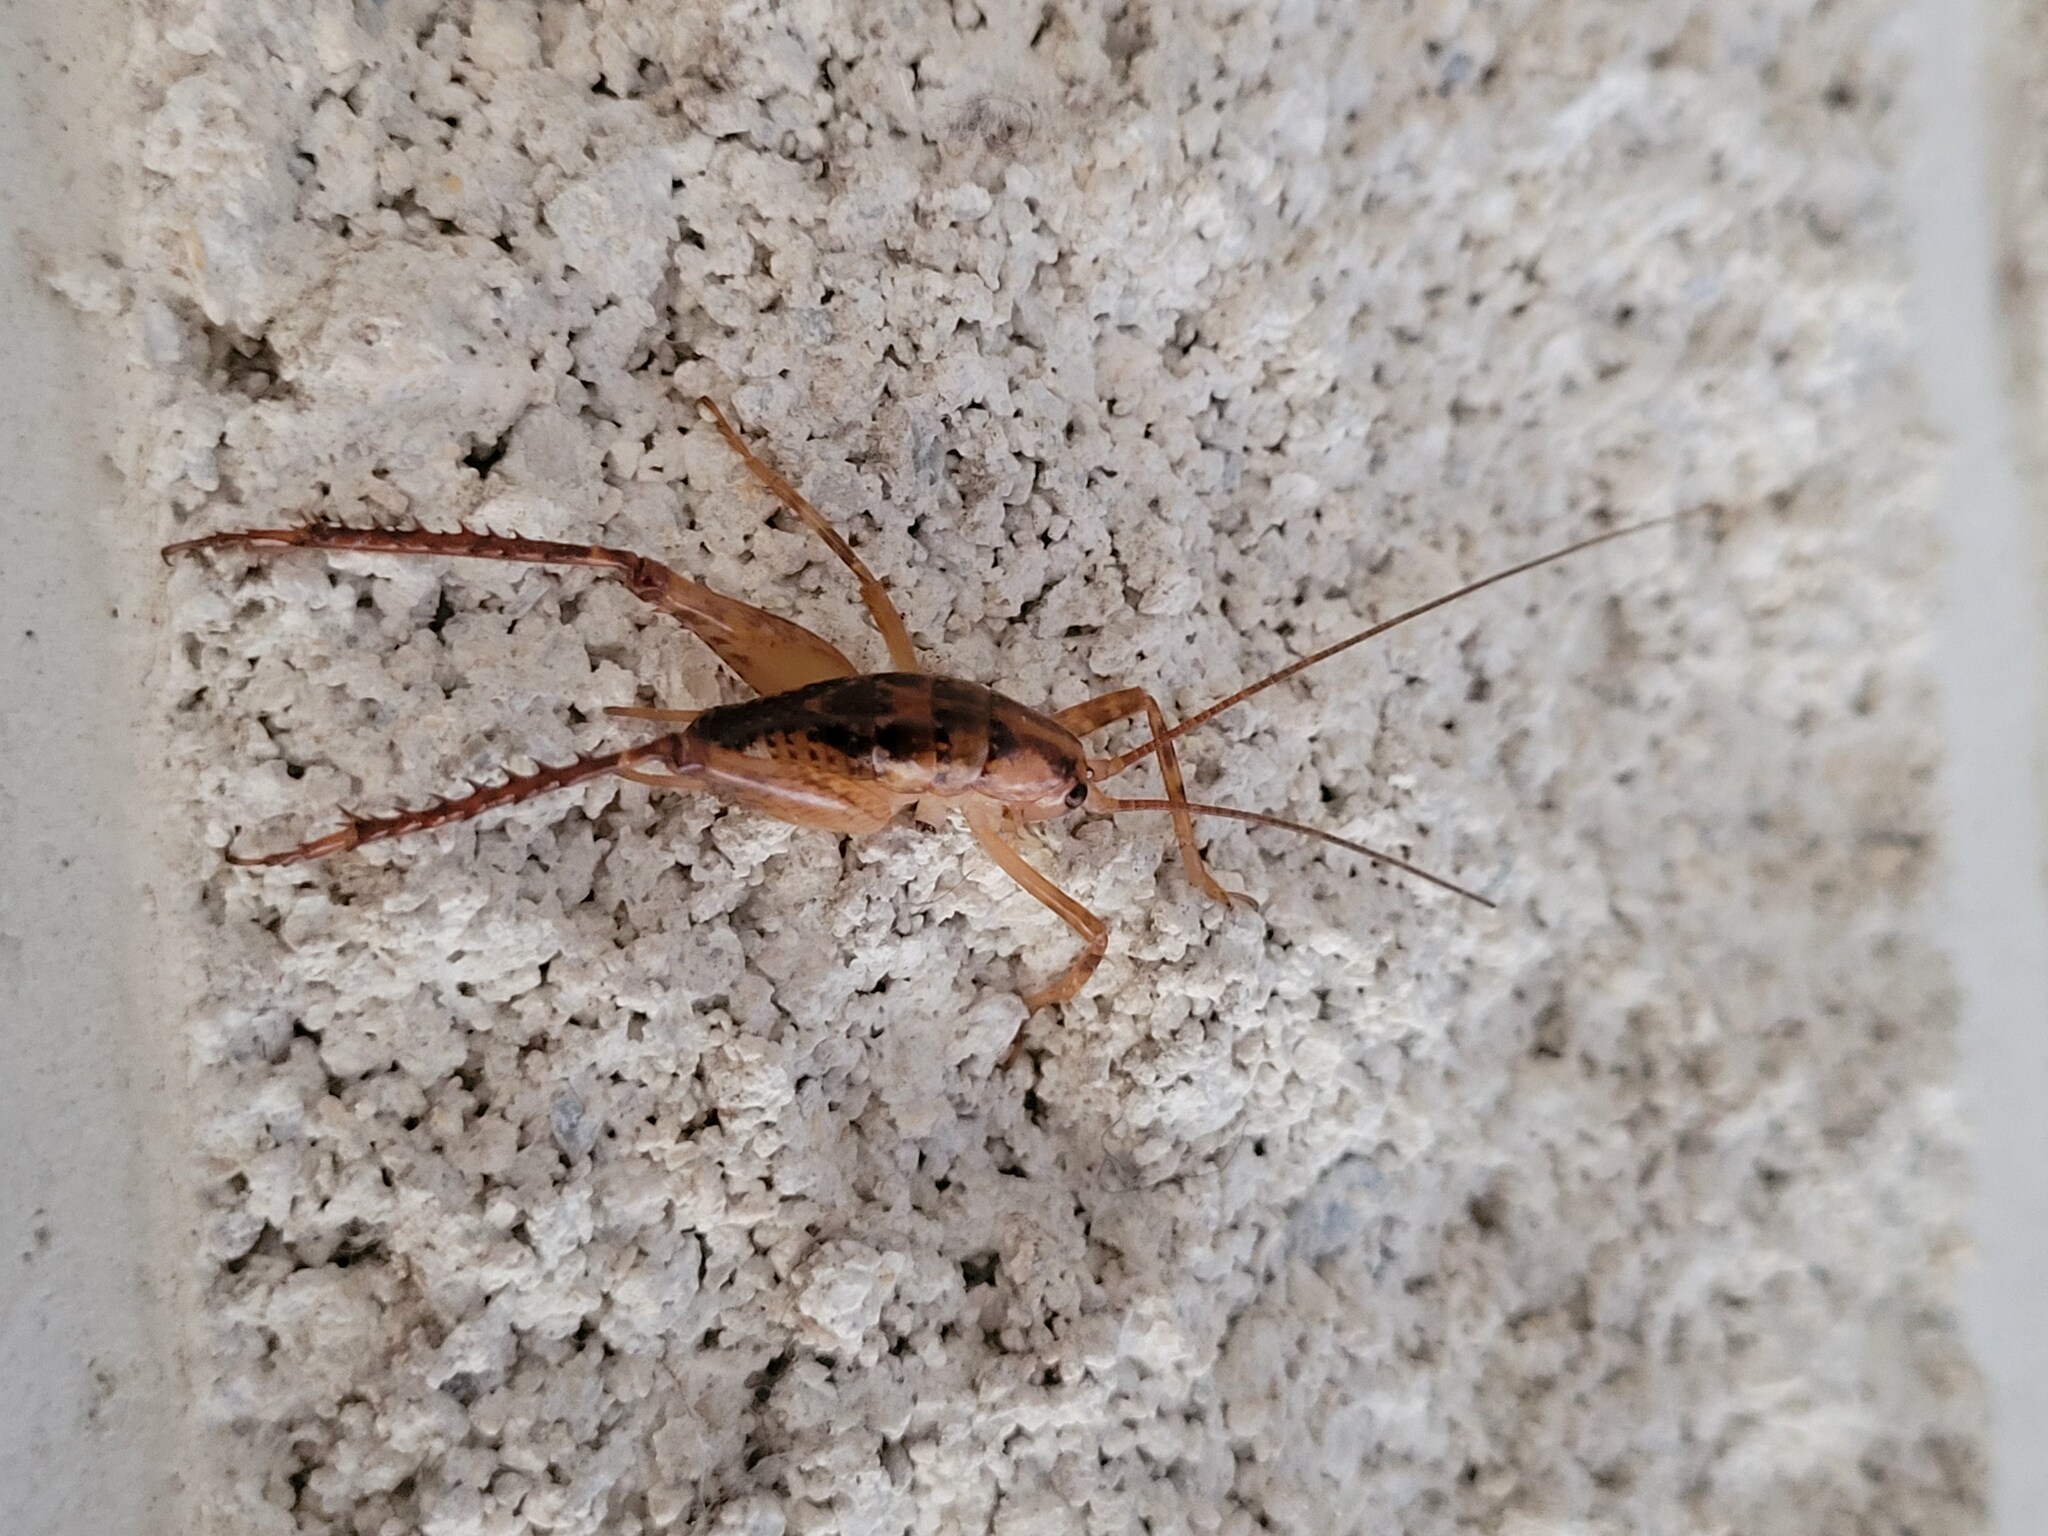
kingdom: Animalia
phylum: Arthropoda
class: Insecta
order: Orthoptera
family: Rhaphidophoridae
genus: Talitropsis
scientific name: Talitropsis sedilloti
